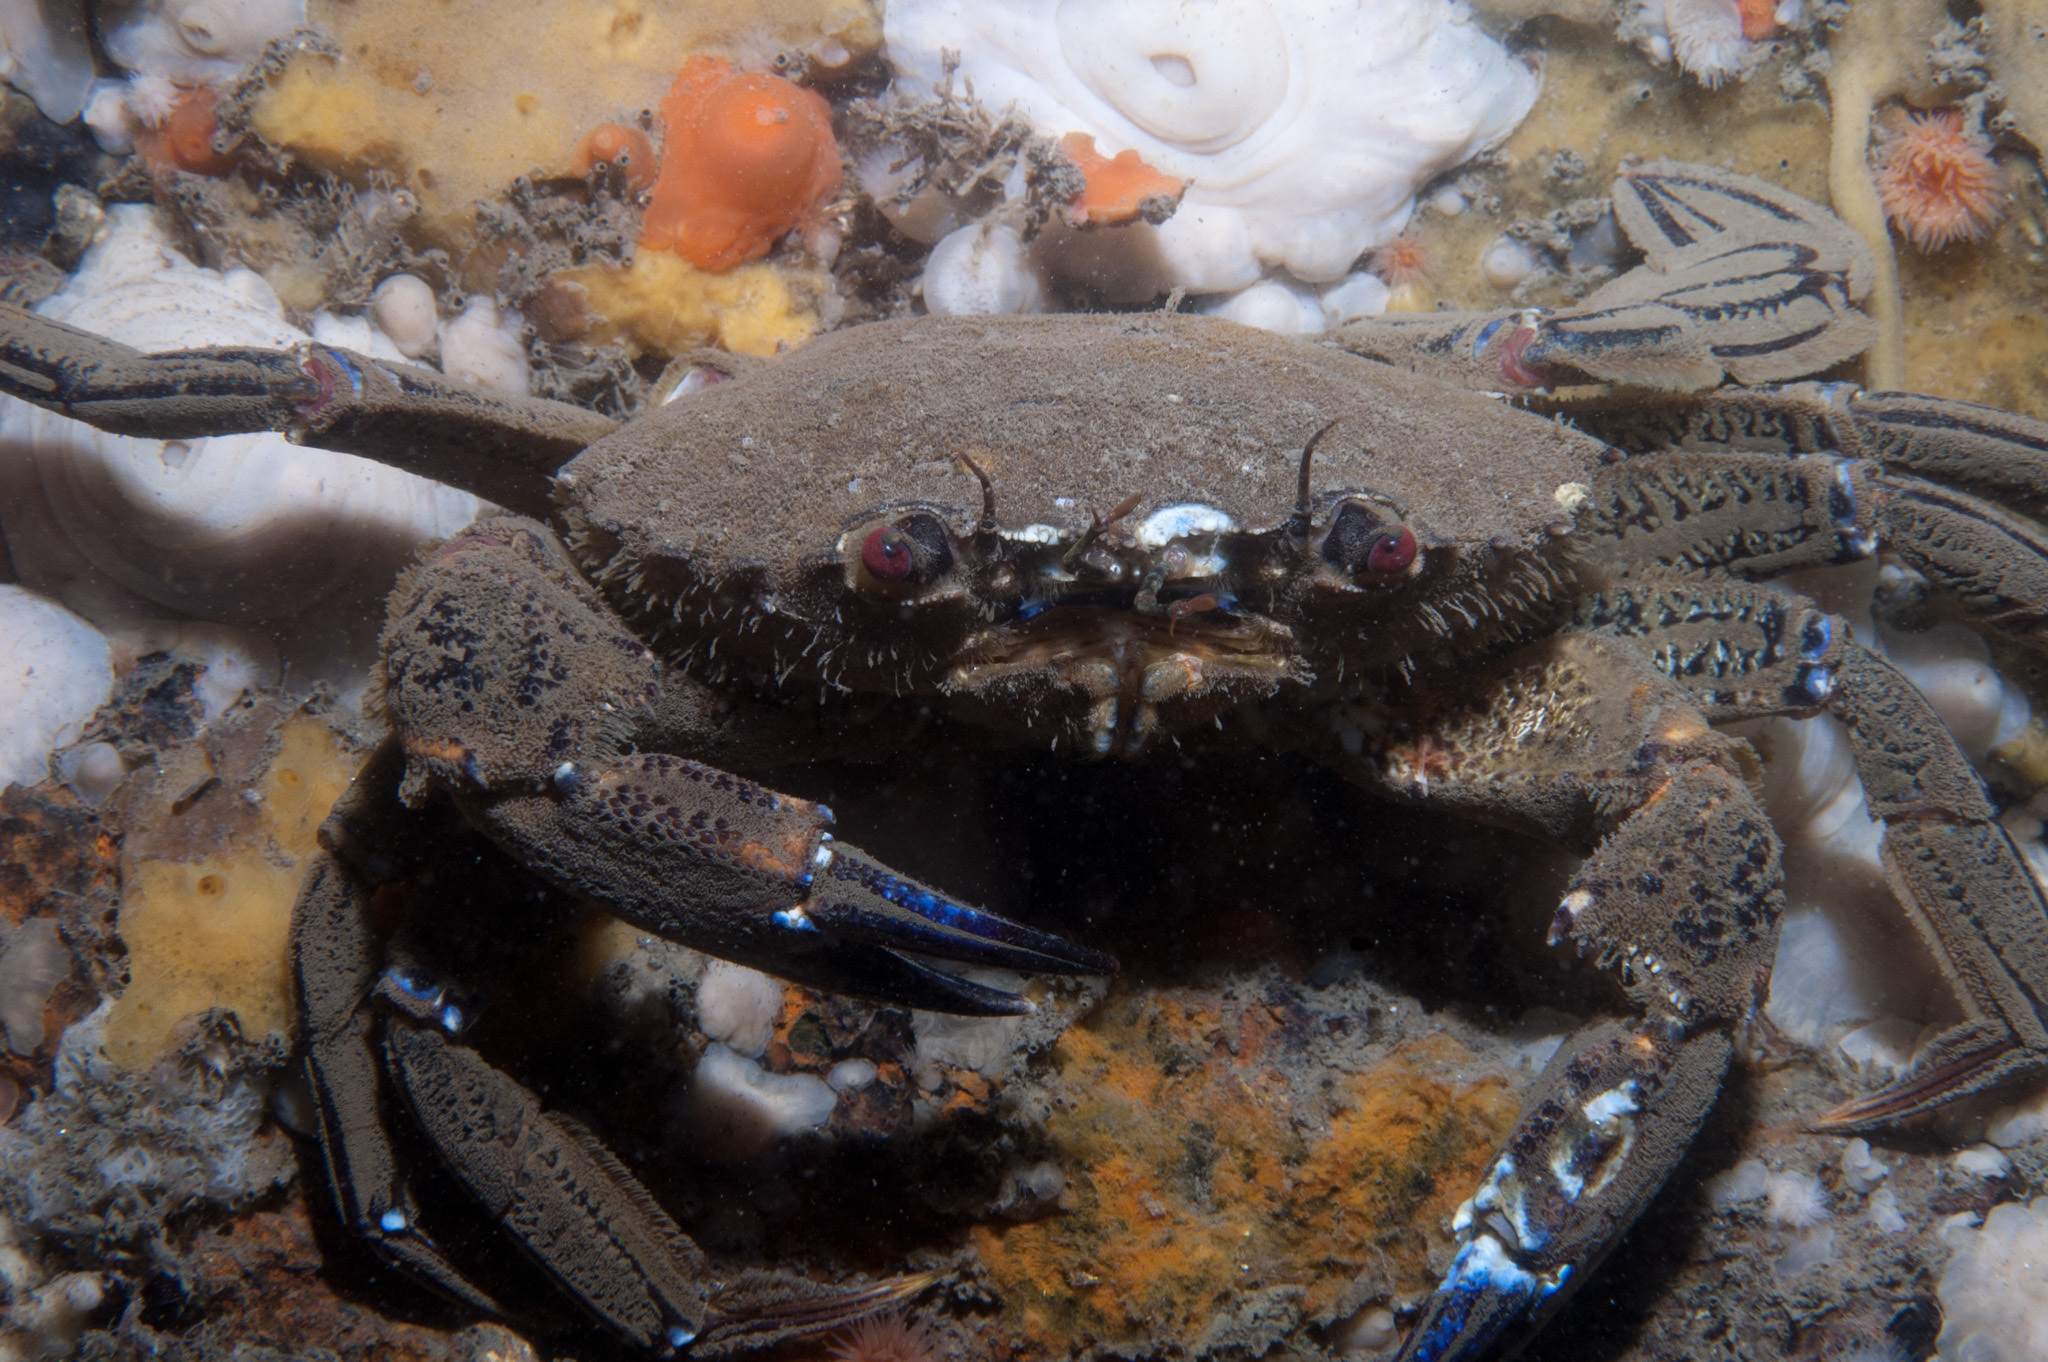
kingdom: Animalia
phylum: Arthropoda
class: Malacostraca
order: Decapoda
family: Polybiidae
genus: Necora
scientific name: Necora puber
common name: Velvet swimming crab
